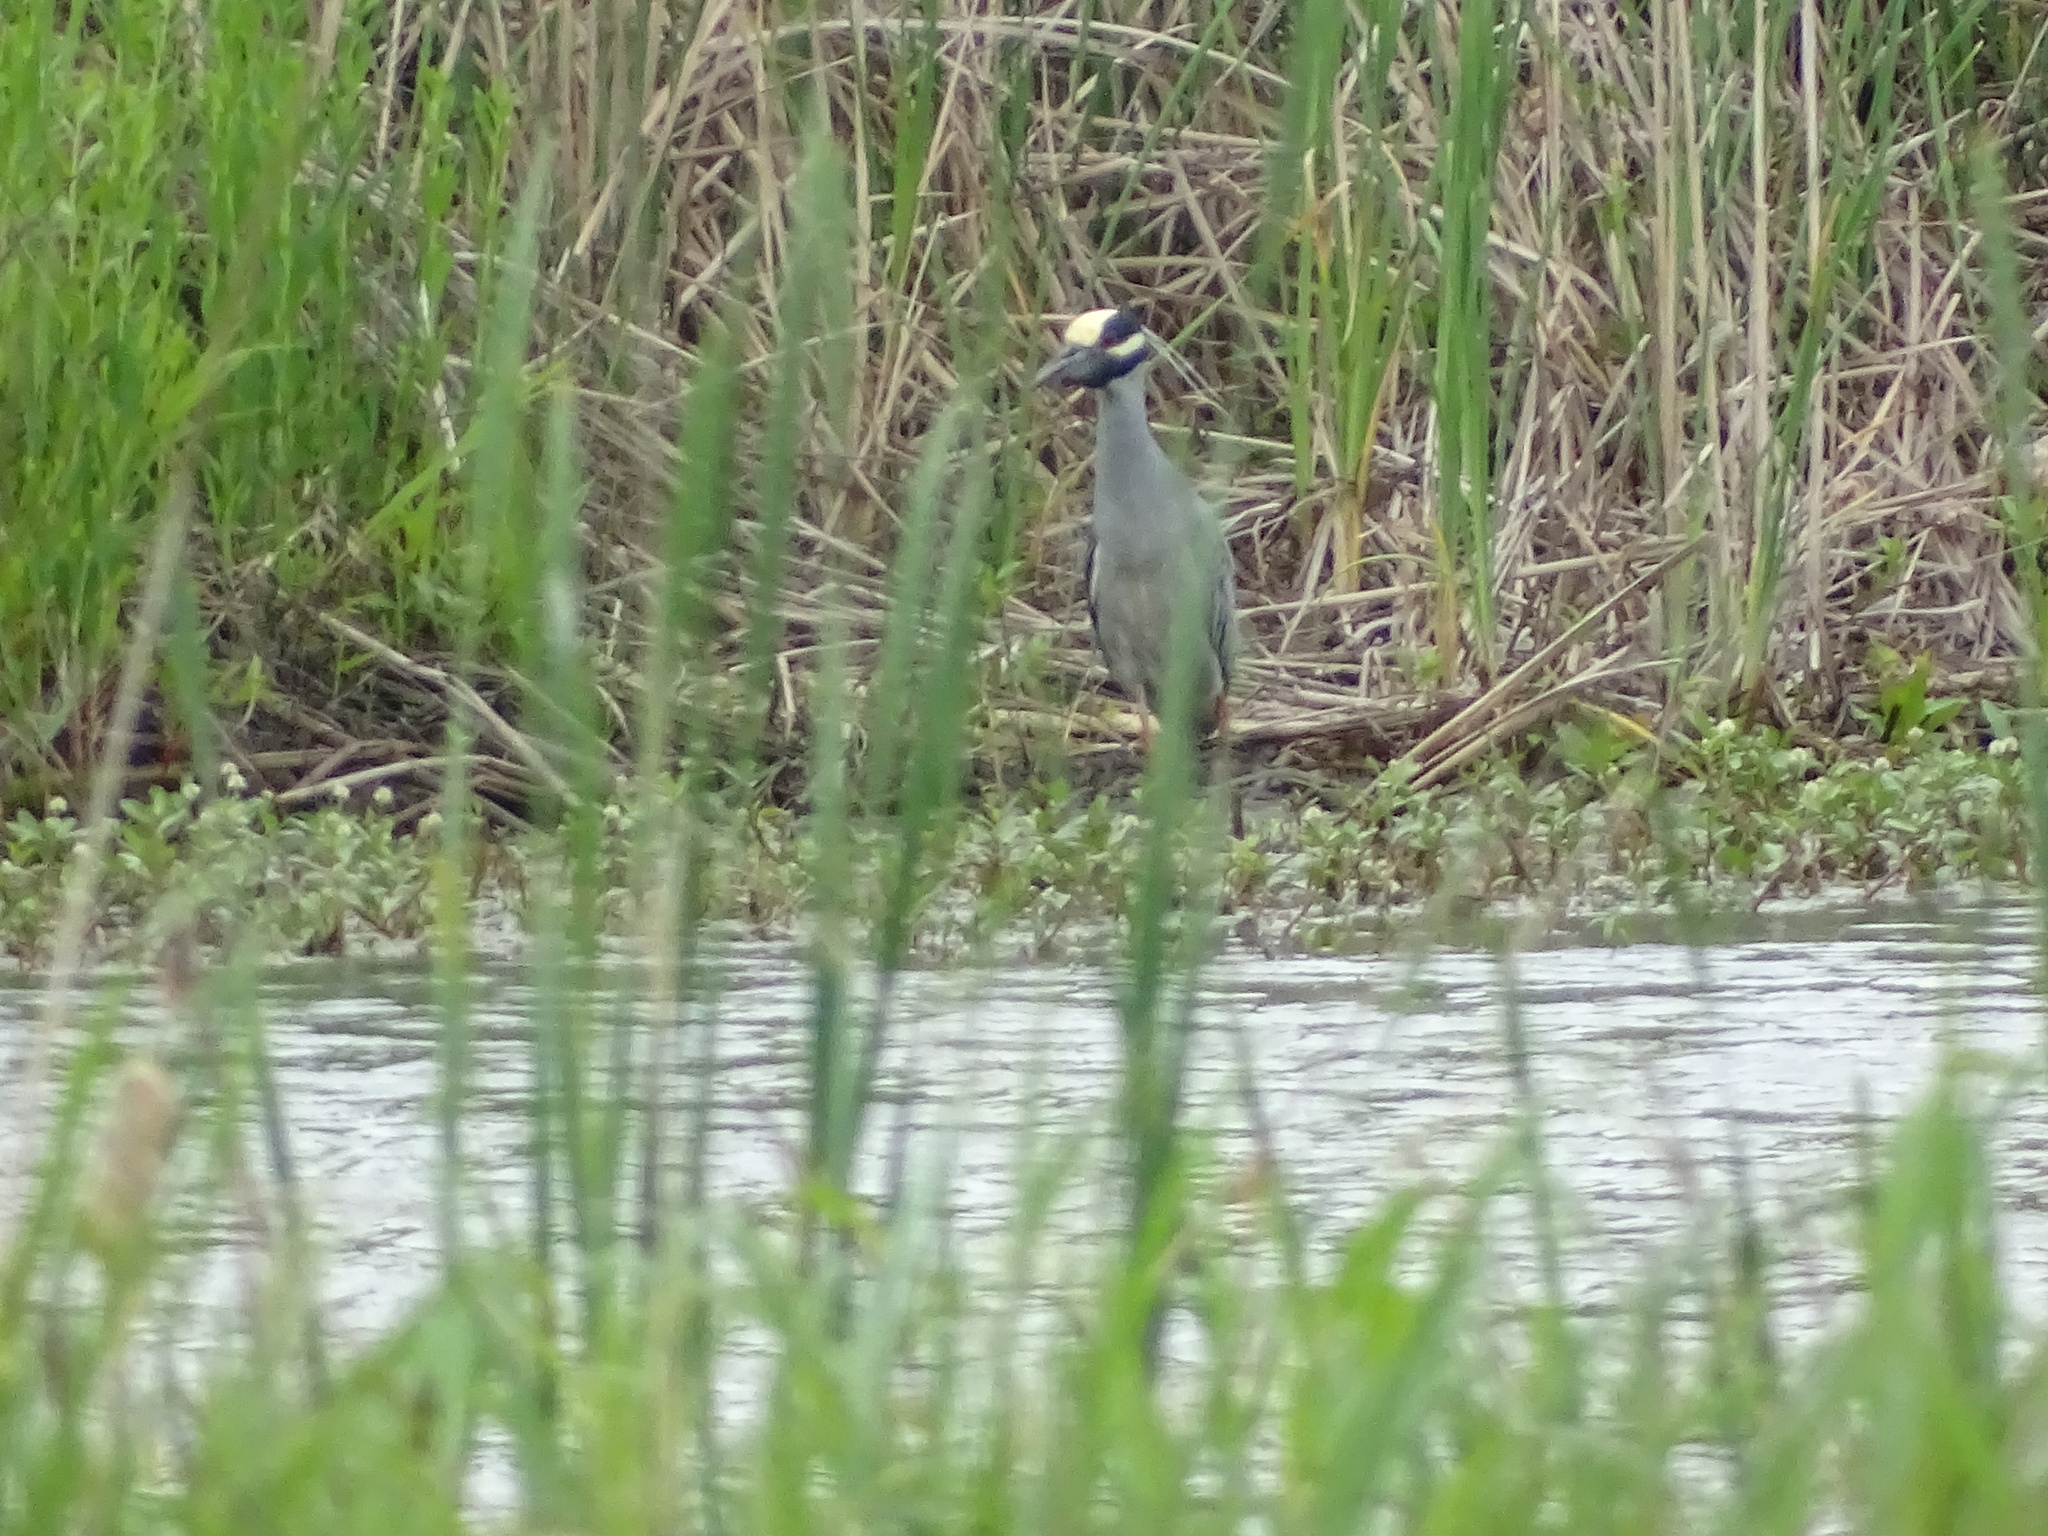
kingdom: Animalia
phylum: Chordata
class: Aves
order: Pelecaniformes
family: Ardeidae
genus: Nyctanassa
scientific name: Nyctanassa violacea
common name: Yellow-crowned night heron
